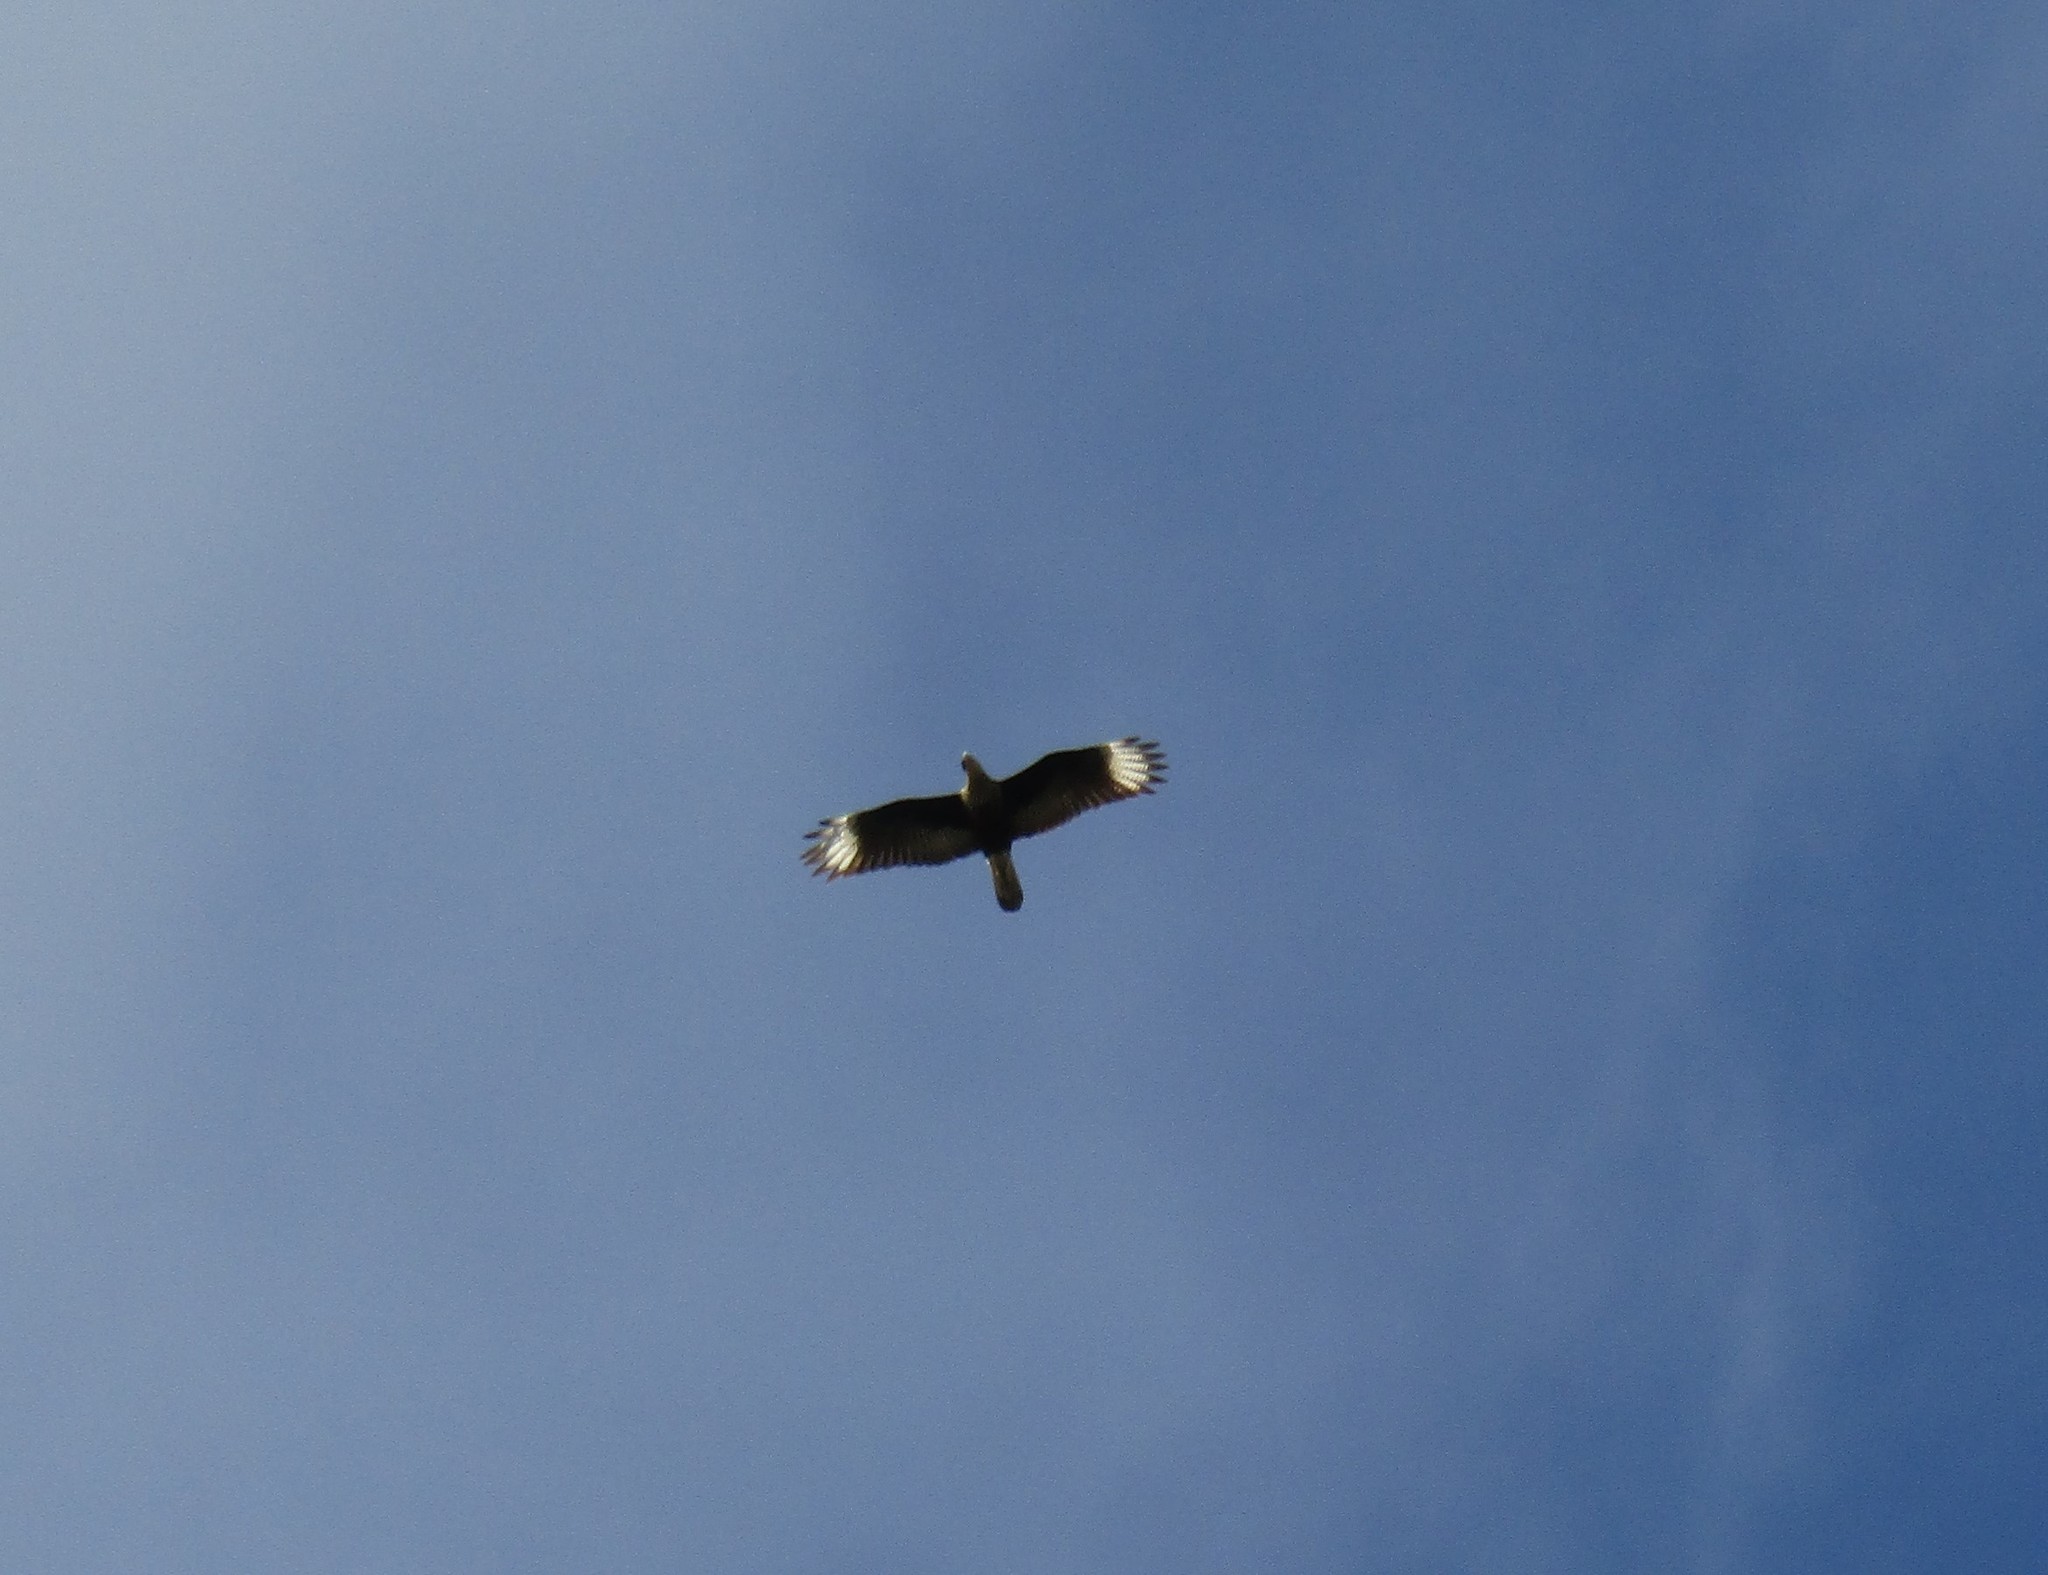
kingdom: Animalia
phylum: Chordata
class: Aves
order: Falconiformes
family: Falconidae
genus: Caracara
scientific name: Caracara plancus
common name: Southern caracara
